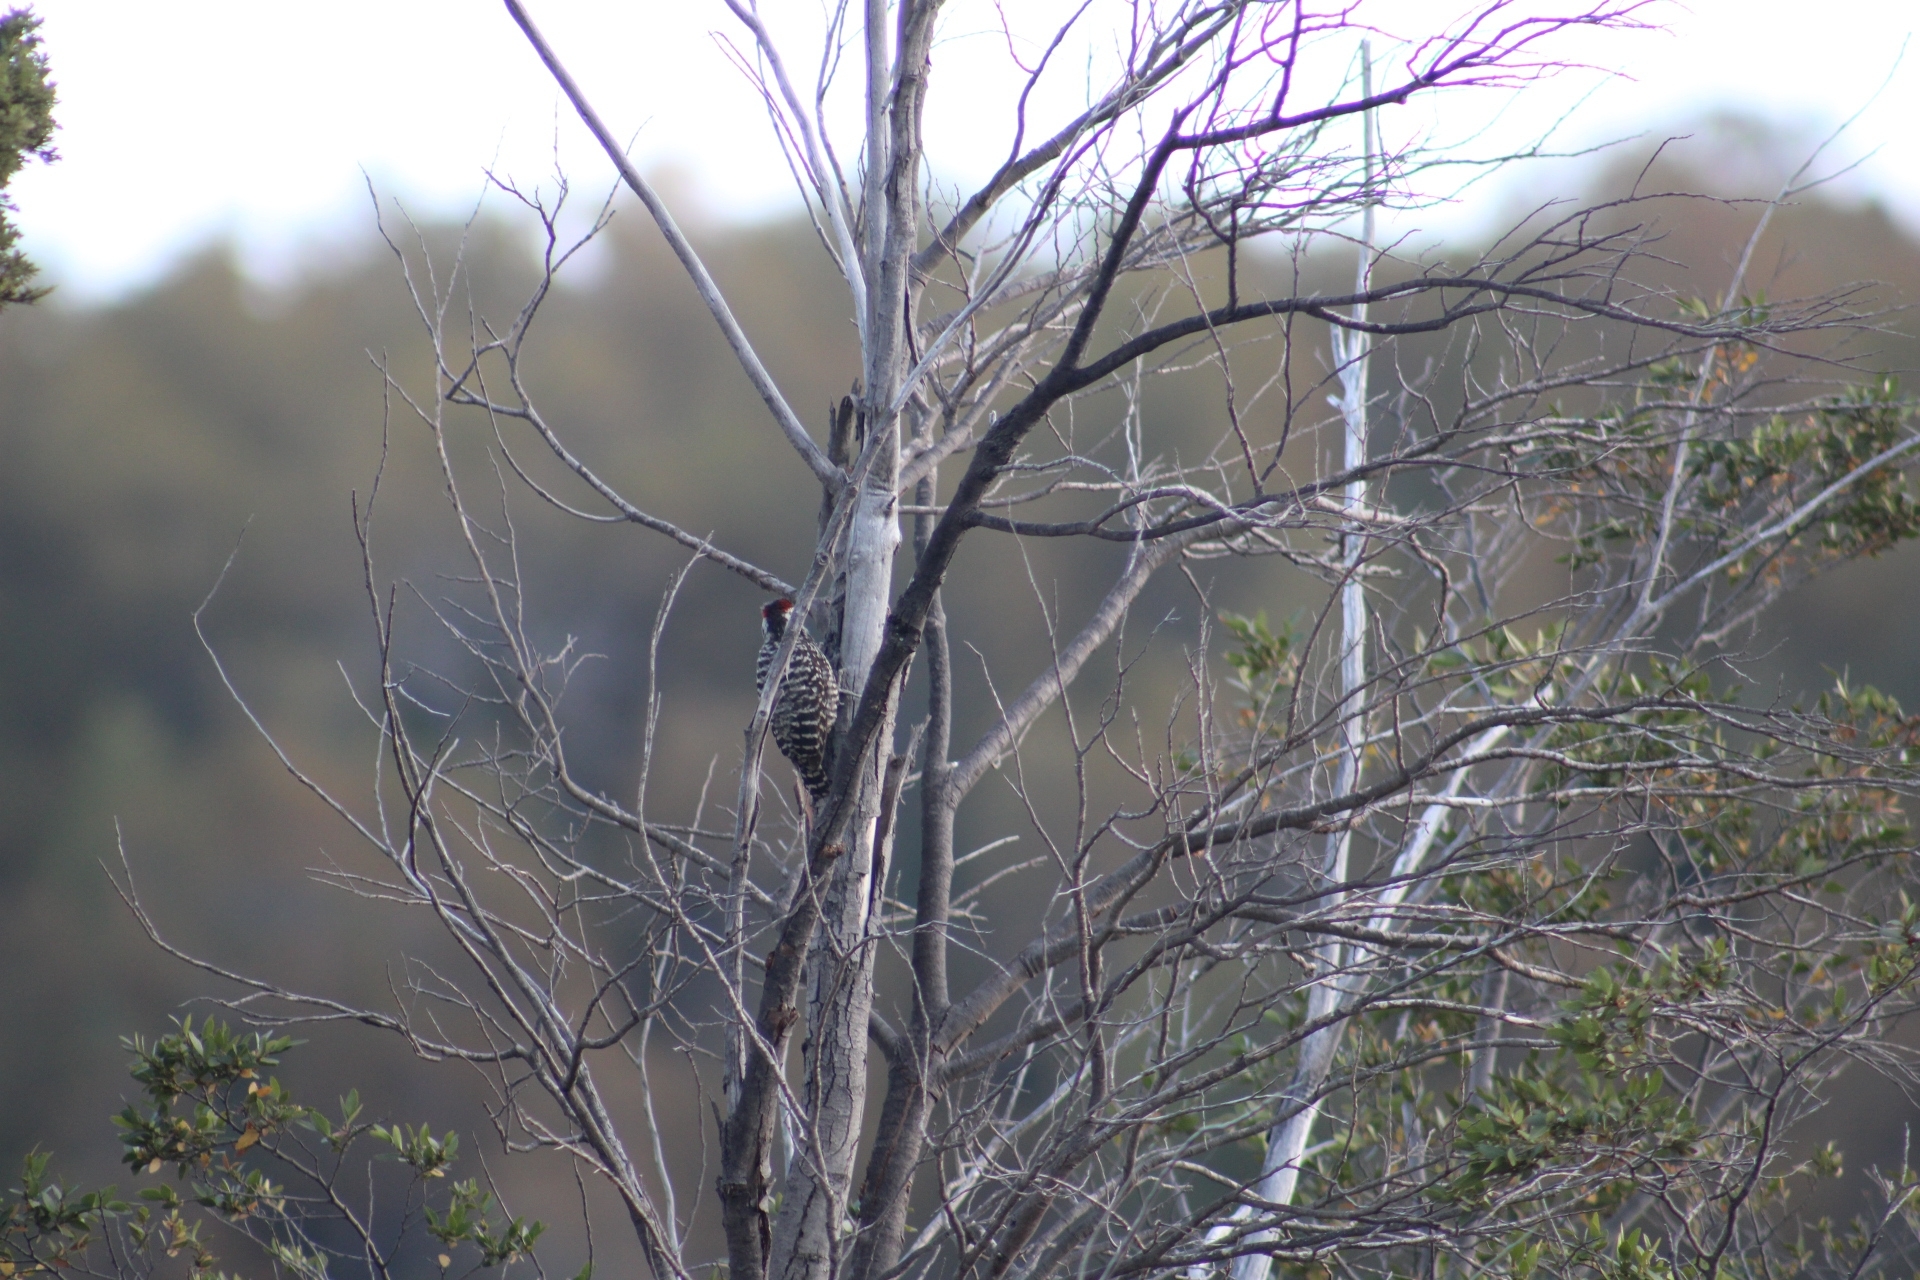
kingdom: Animalia
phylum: Chordata
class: Aves
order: Piciformes
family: Picidae
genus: Veniliornis
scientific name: Veniliornis lignarius
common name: Striped woodpecker
